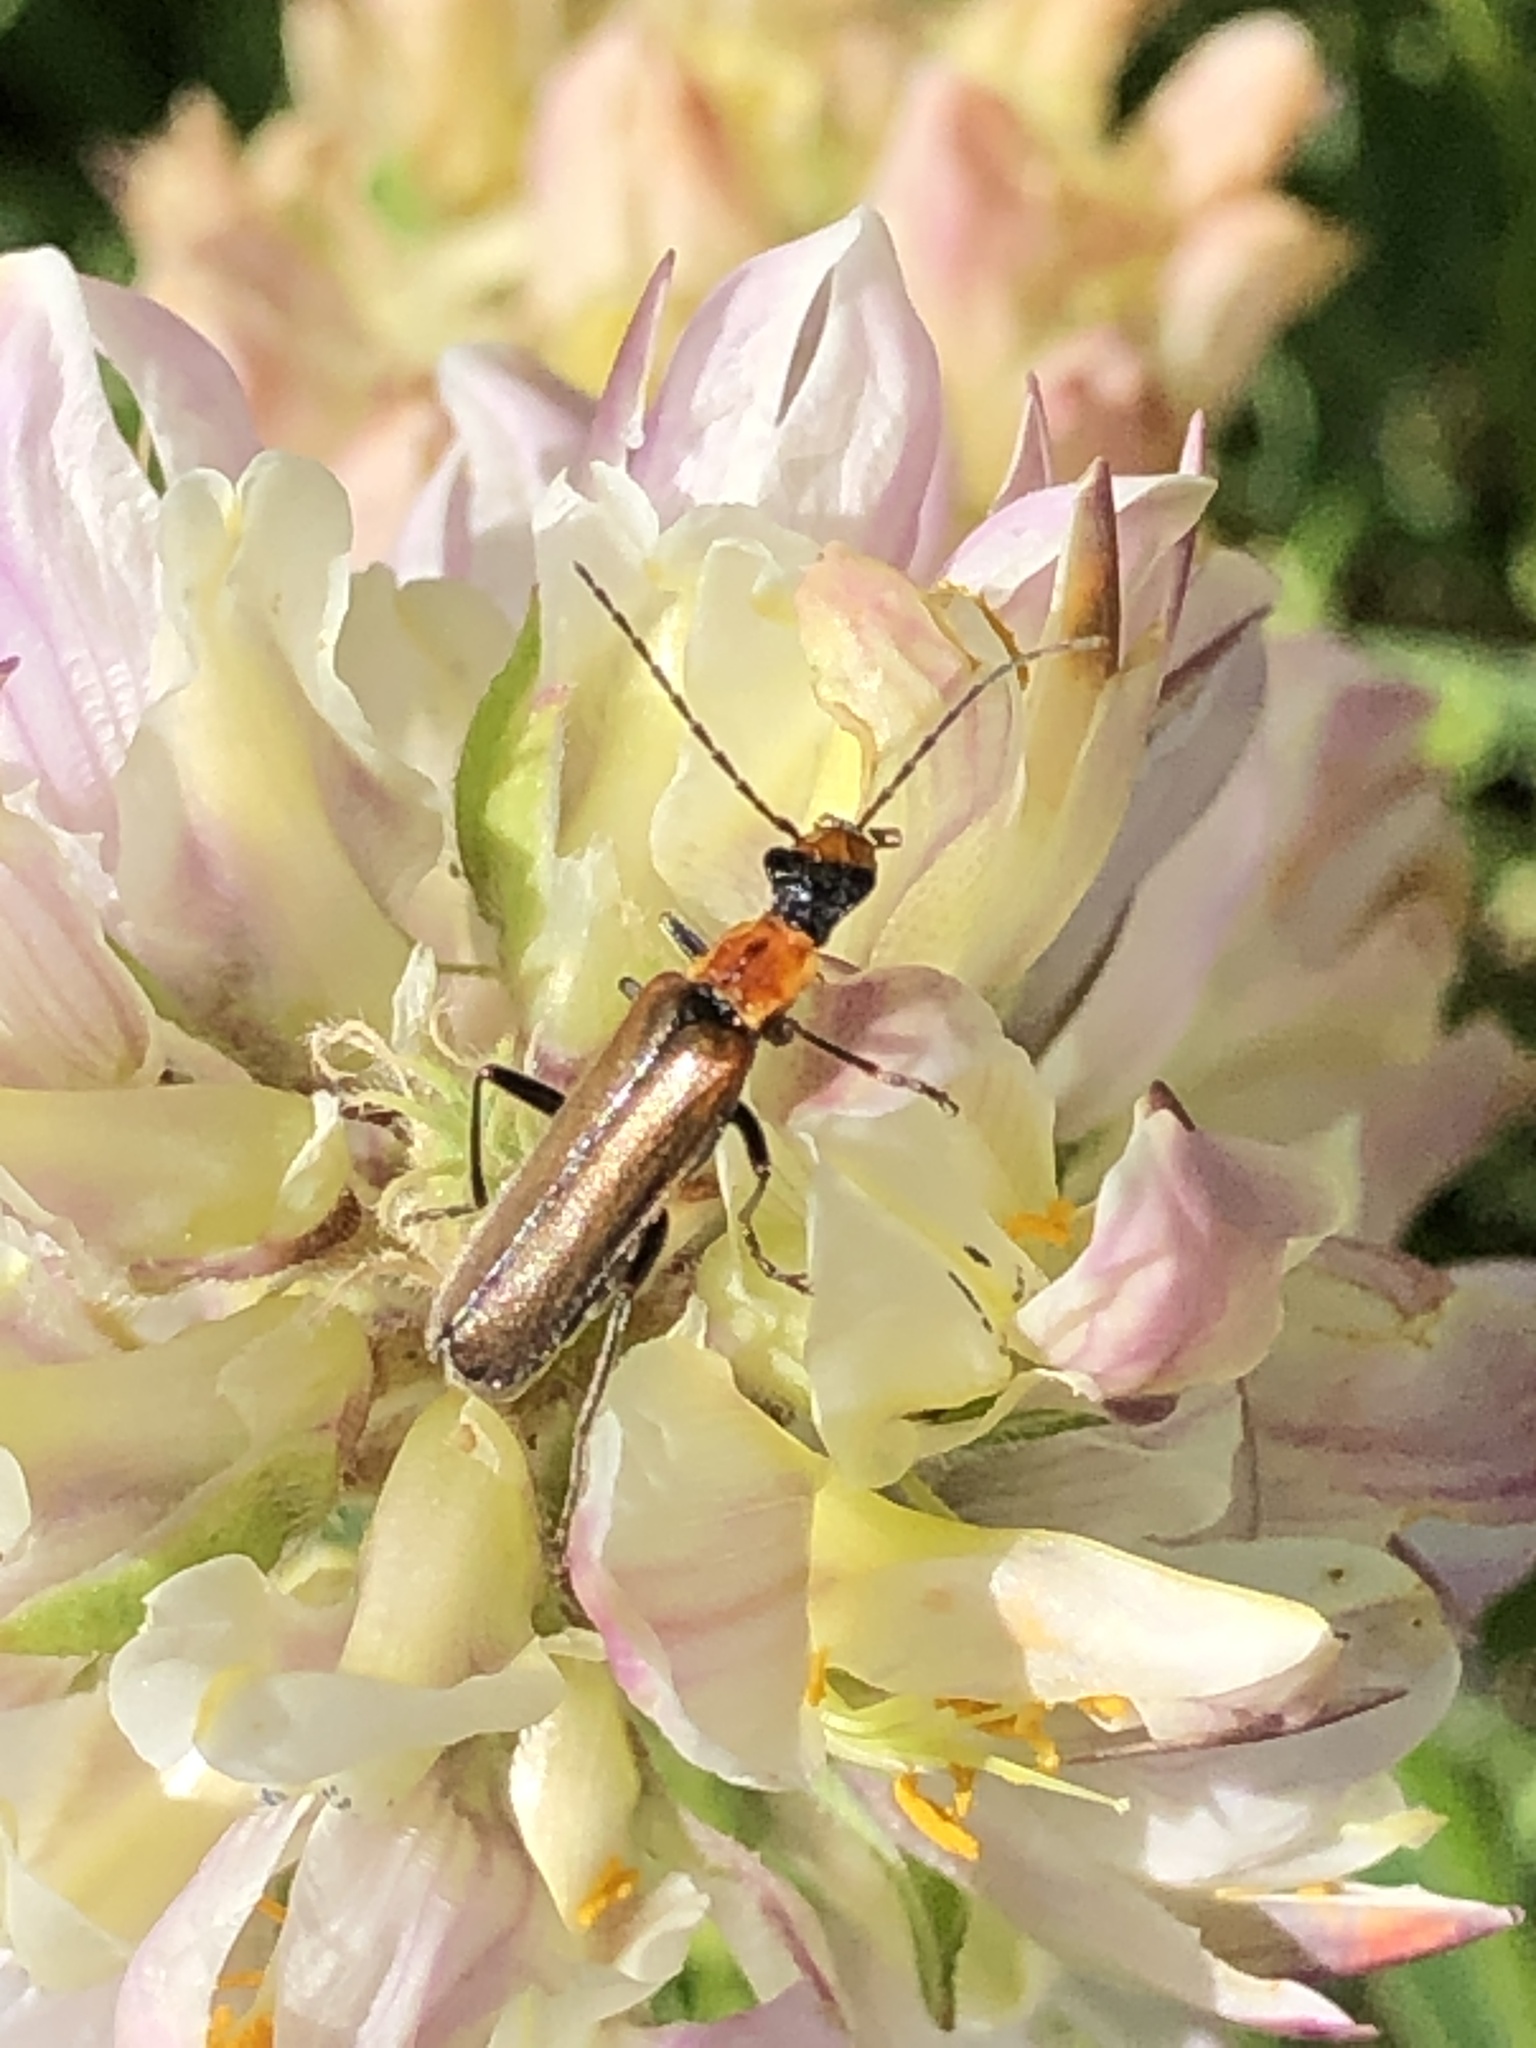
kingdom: Animalia
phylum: Arthropoda
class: Insecta
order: Coleoptera
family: Cantharidae
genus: Dichelotarsus
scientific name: Dichelotarsus cavicollis
